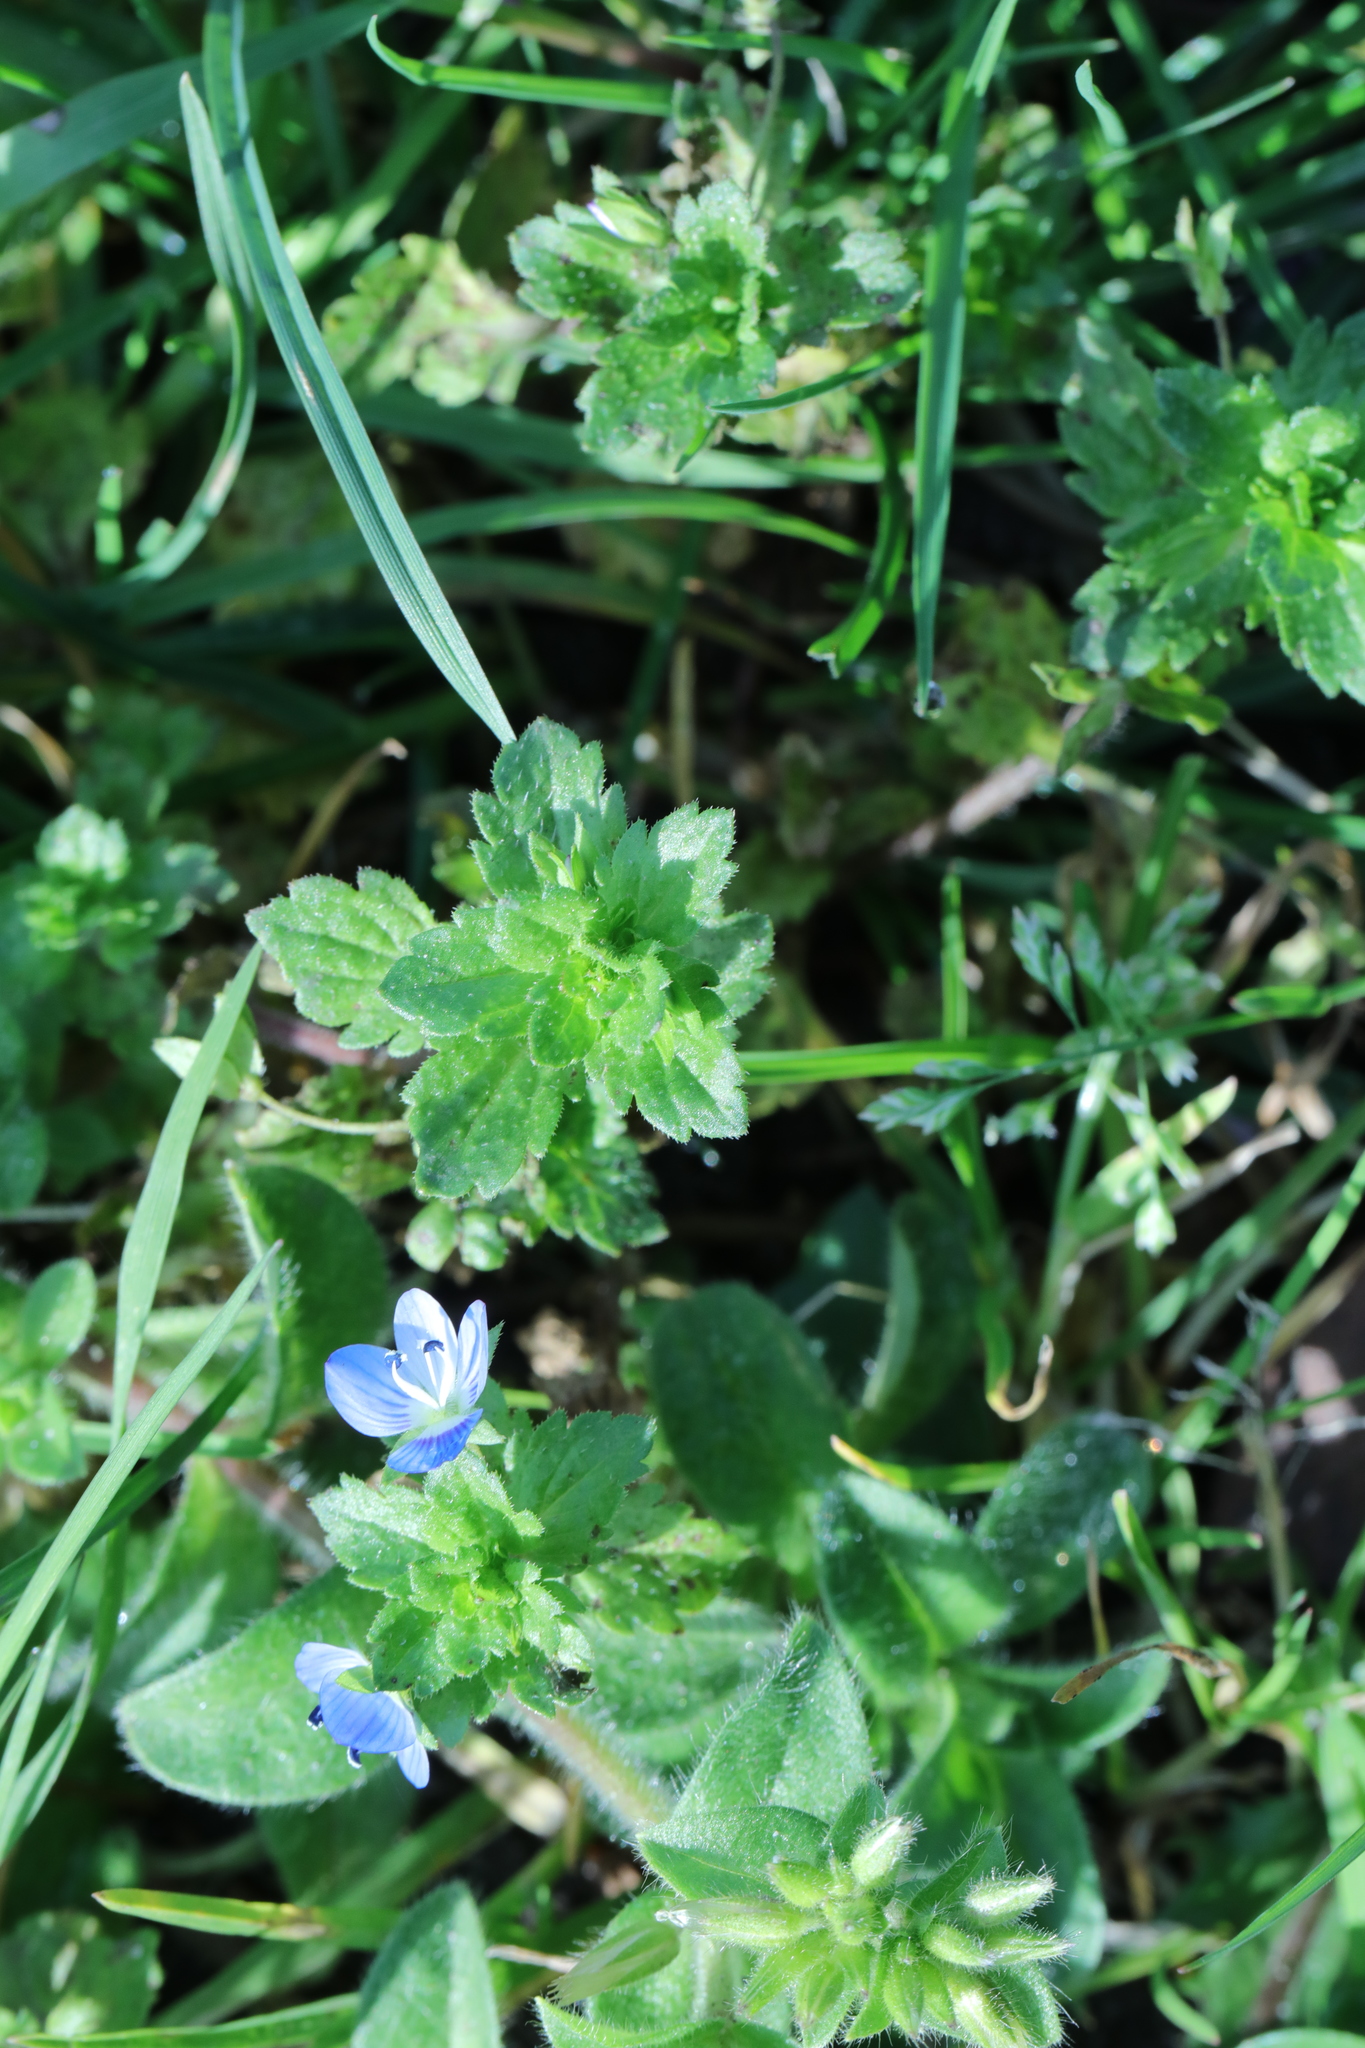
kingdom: Plantae
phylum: Tracheophyta
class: Magnoliopsida
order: Lamiales
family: Plantaginaceae
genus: Veronica
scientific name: Veronica persica
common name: Common field-speedwell
